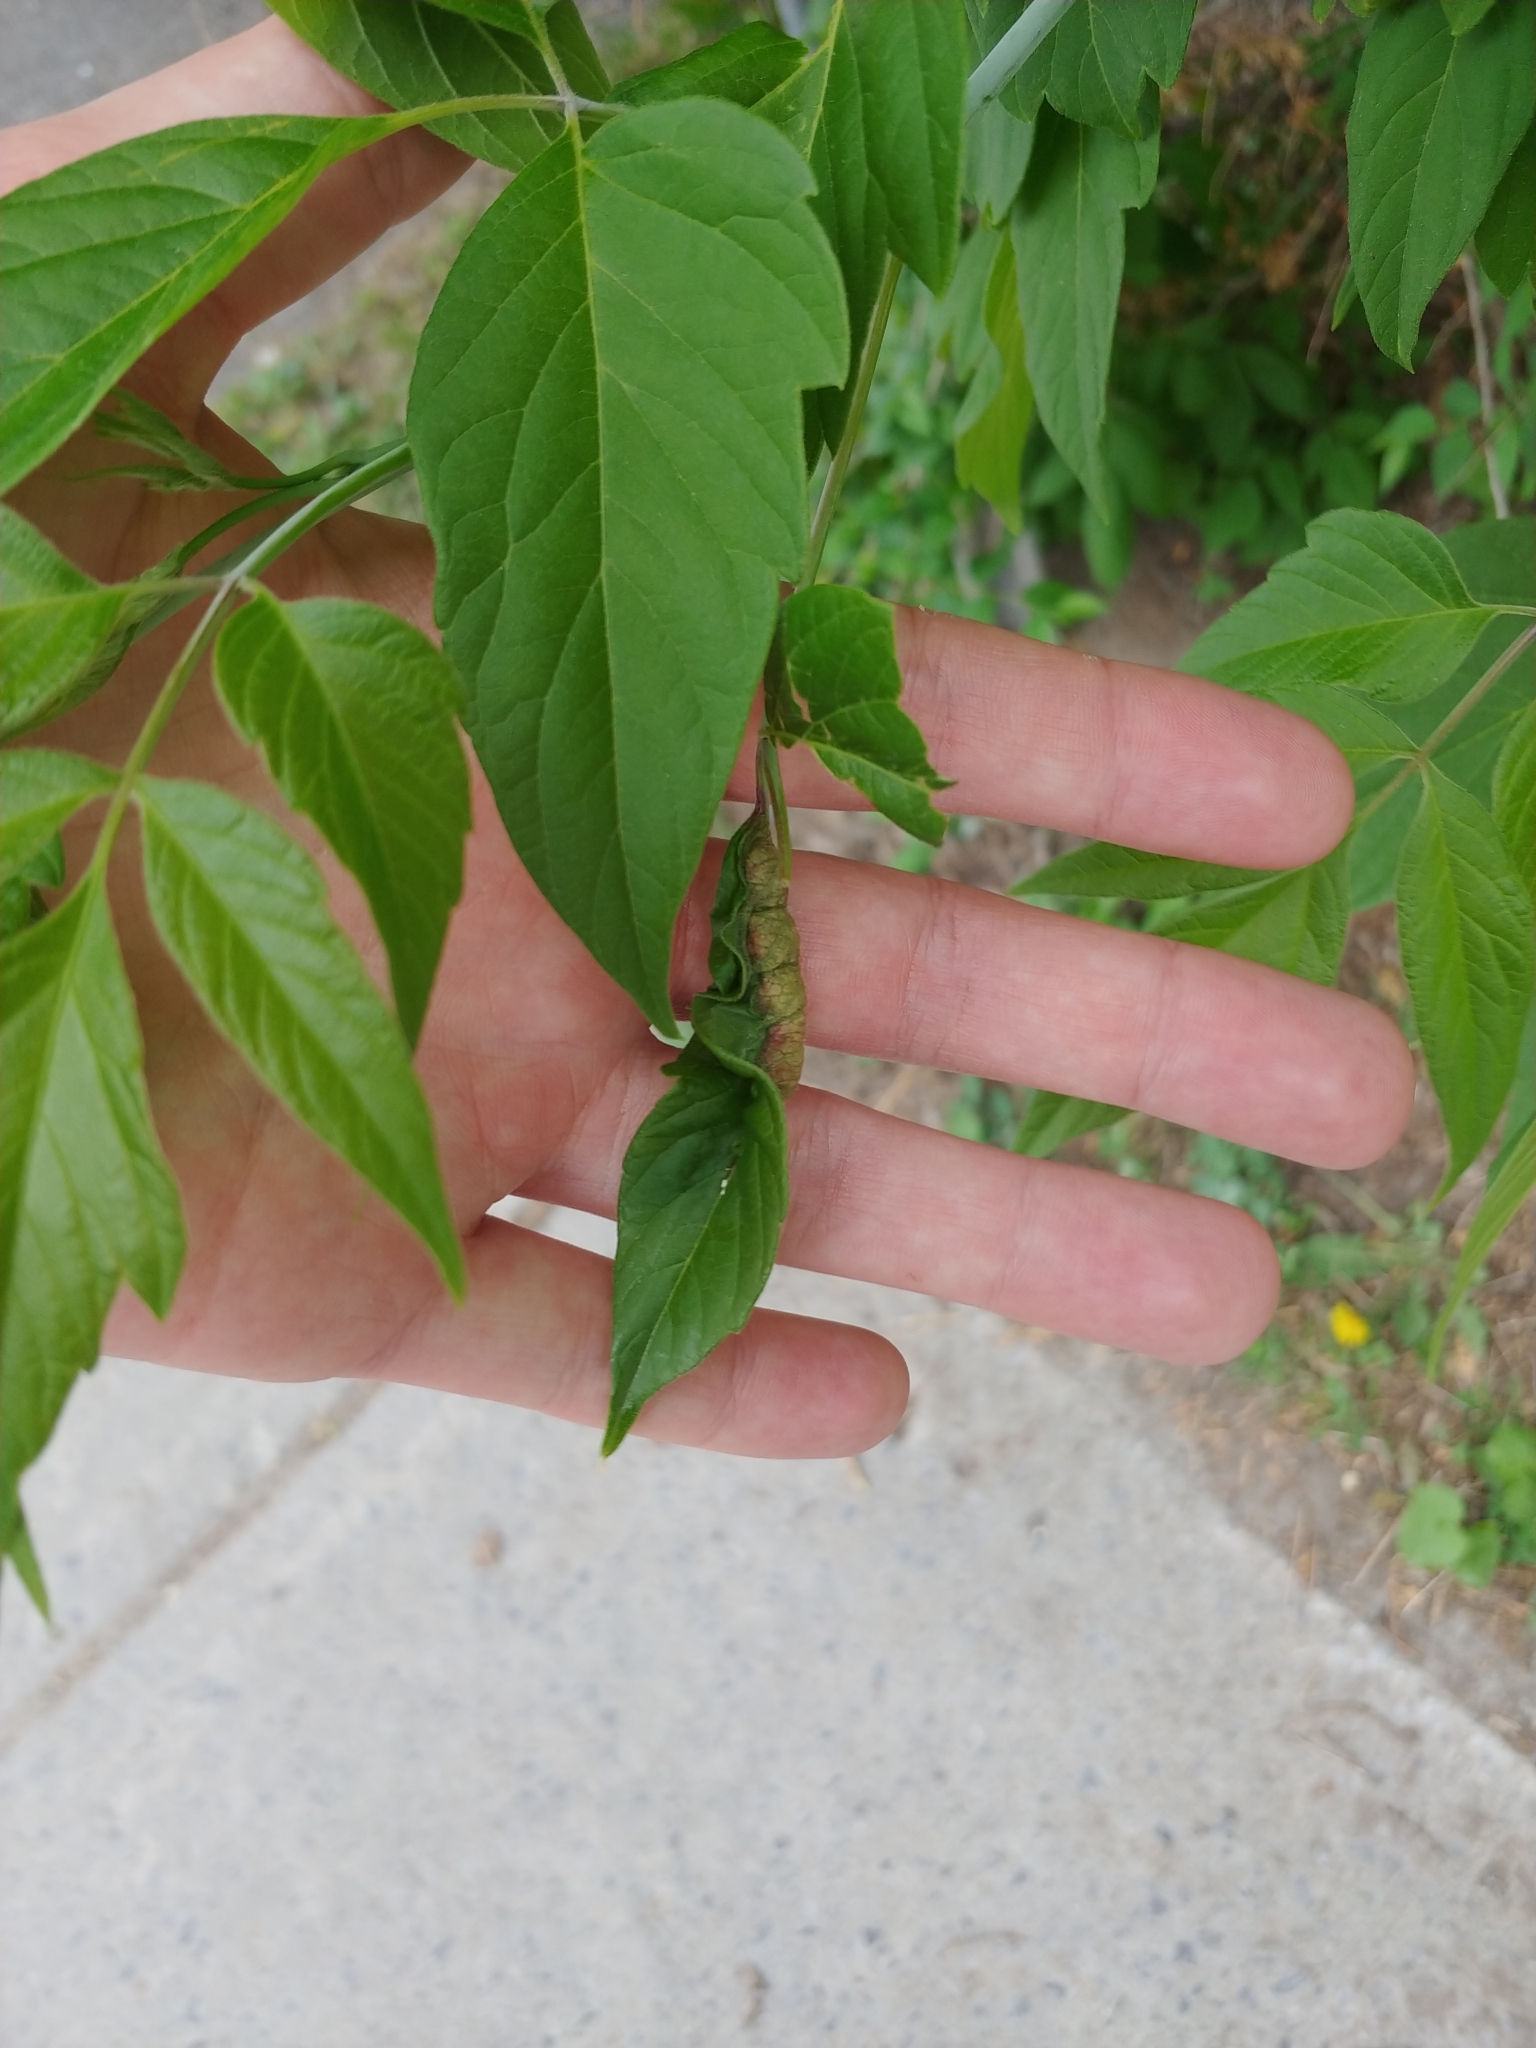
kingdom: Animalia
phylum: Arthropoda
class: Insecta
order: Diptera
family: Cecidomyiidae
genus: Contarinia
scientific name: Contarinia negundinis
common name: Boxelder budgall midge
